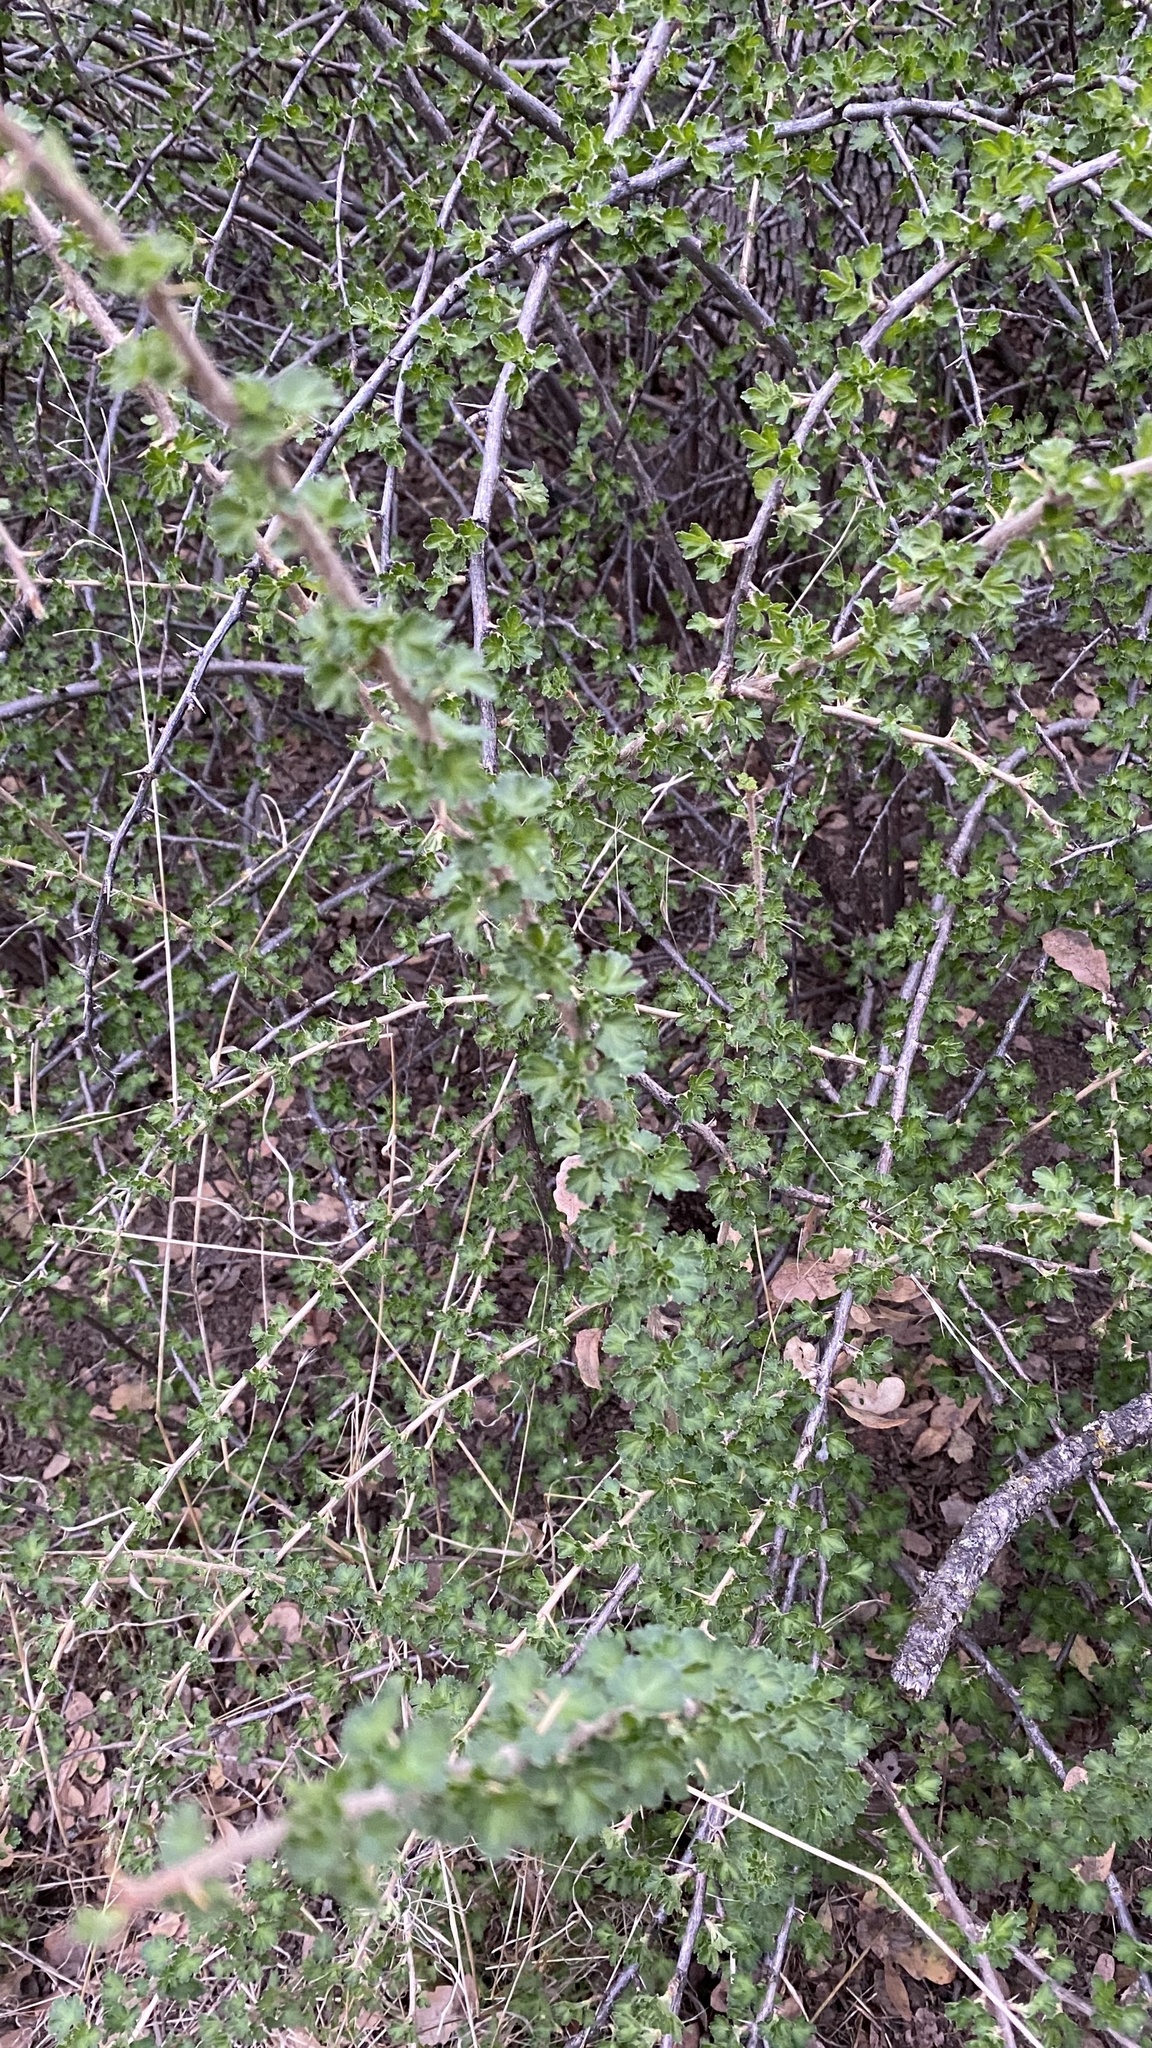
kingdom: Plantae
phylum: Tracheophyta
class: Magnoliopsida
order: Saxifragales
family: Grossulariaceae
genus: Ribes
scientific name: Ribes quercetorum
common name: Oak gooseberry
